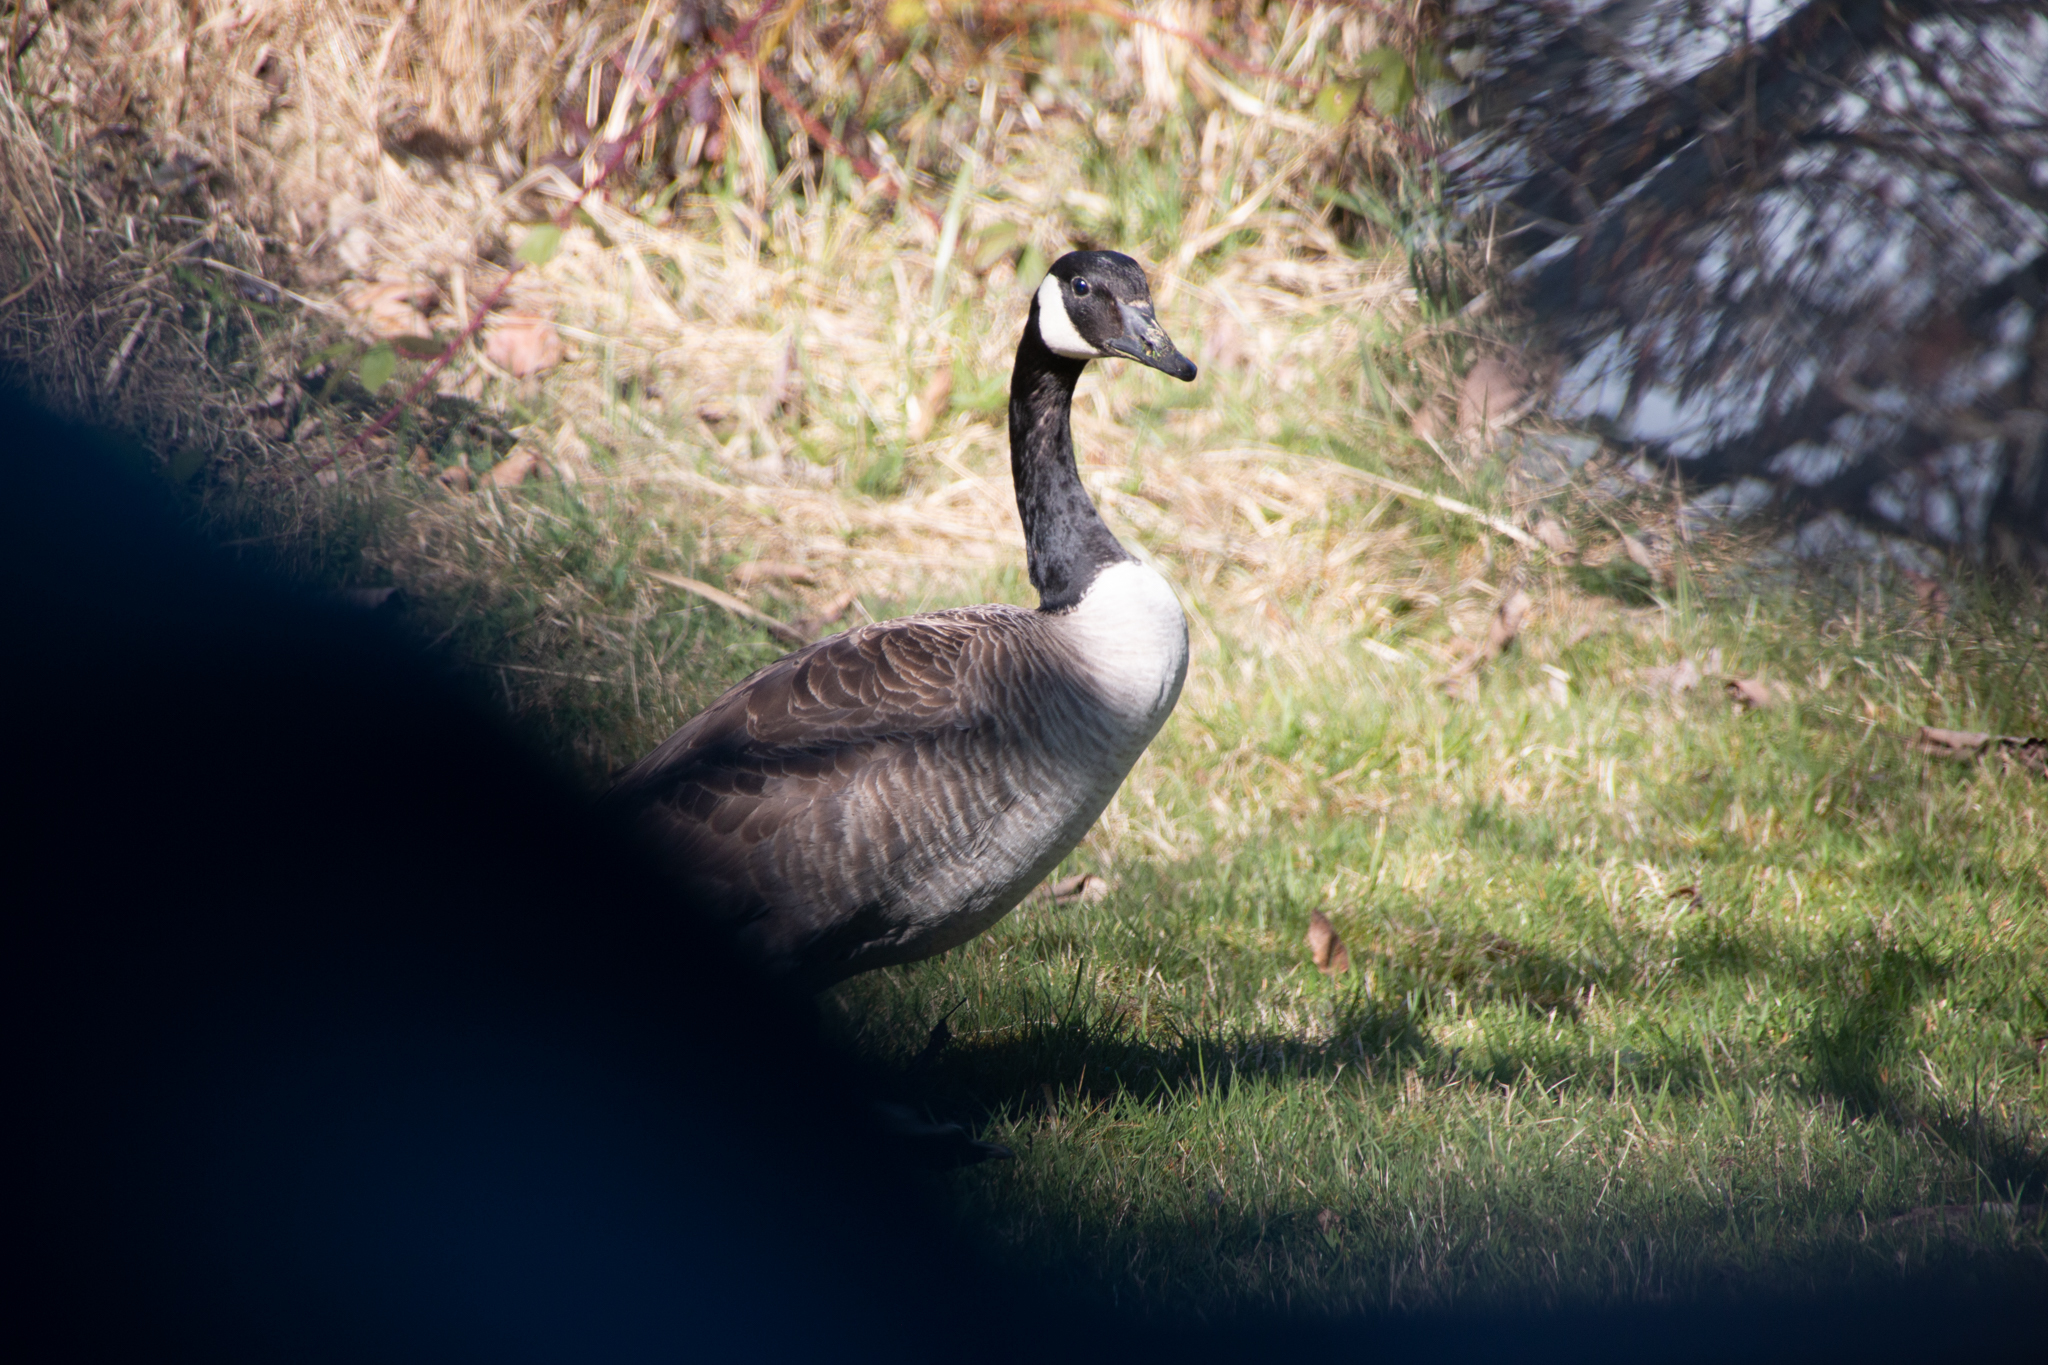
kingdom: Animalia
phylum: Chordata
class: Aves
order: Anseriformes
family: Anatidae
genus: Branta
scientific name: Branta canadensis
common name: Canada goose
